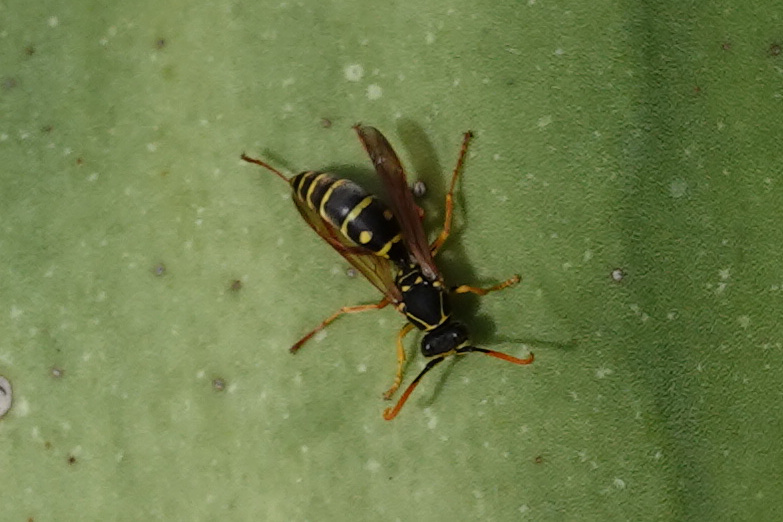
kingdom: Animalia
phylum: Arthropoda
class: Insecta
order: Hymenoptera
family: Eumenidae
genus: Polistes
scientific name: Polistes chinensis
